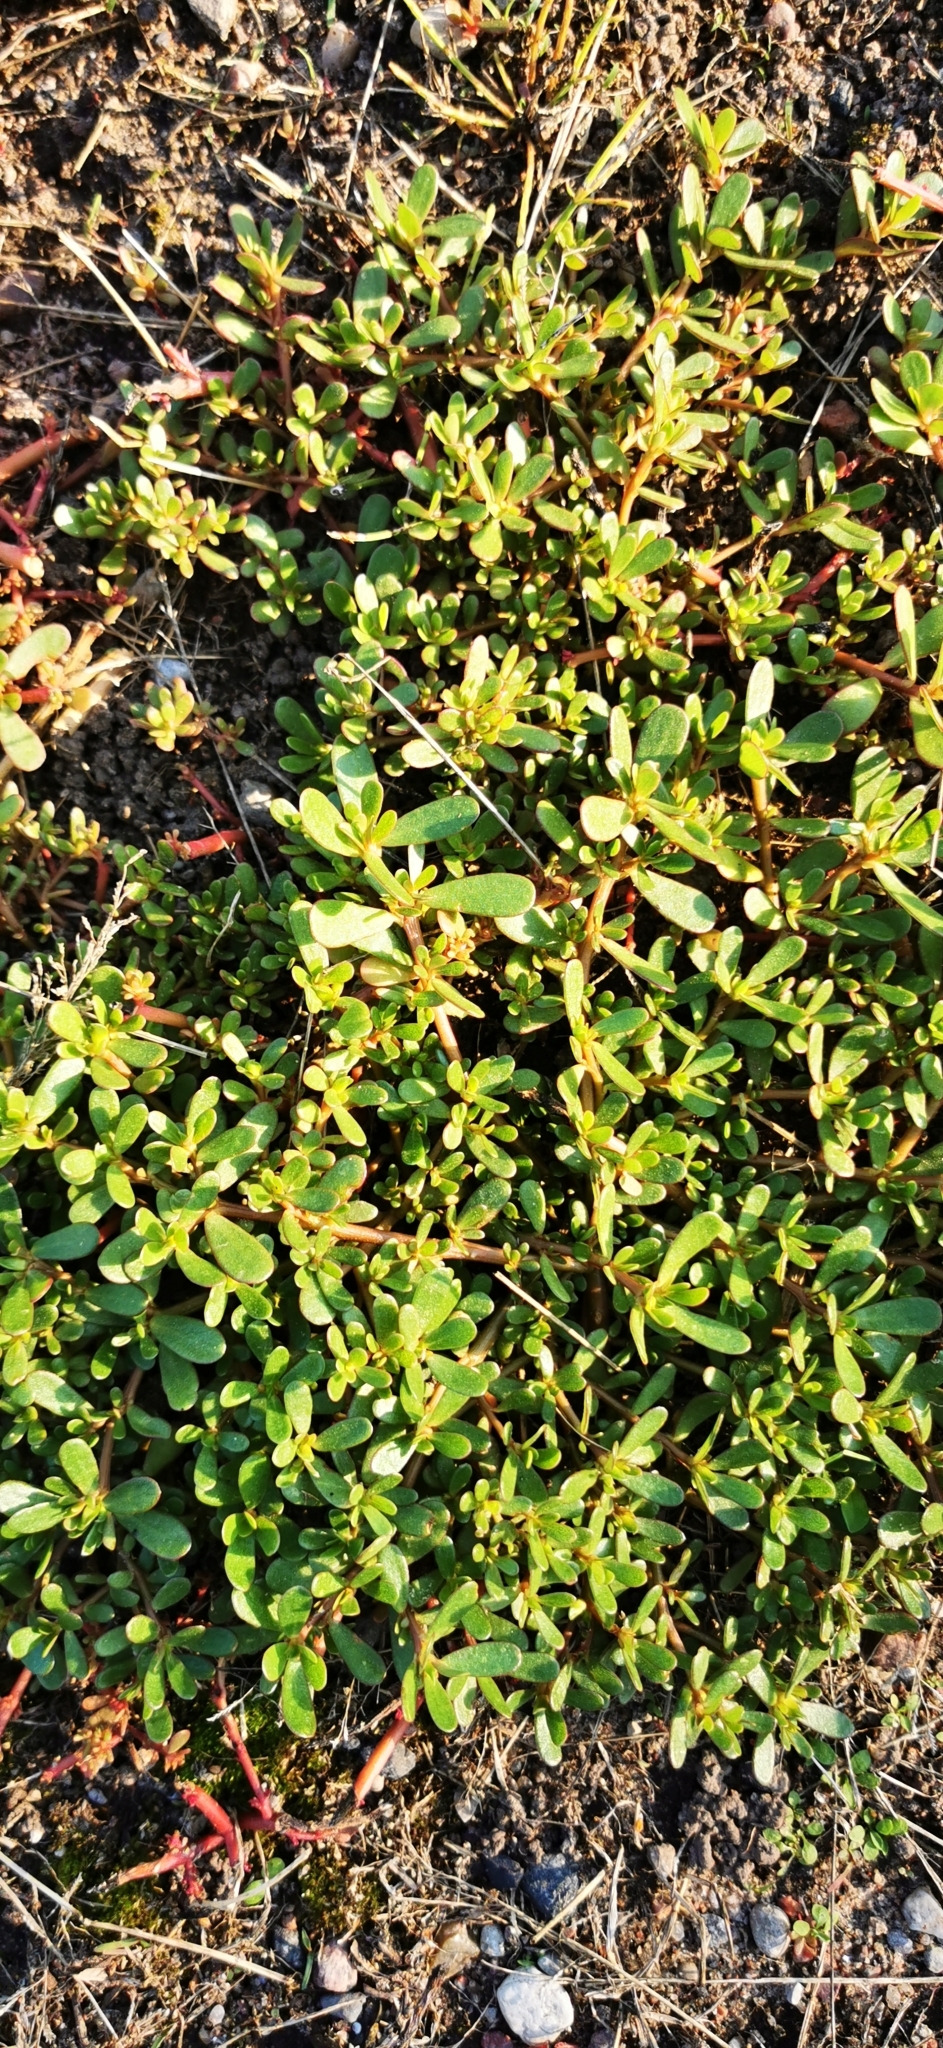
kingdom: Plantae
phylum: Tracheophyta
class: Magnoliopsida
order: Caryophyllales
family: Portulacaceae
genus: Portulaca
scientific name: Portulaca oleracea
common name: Common purslane
